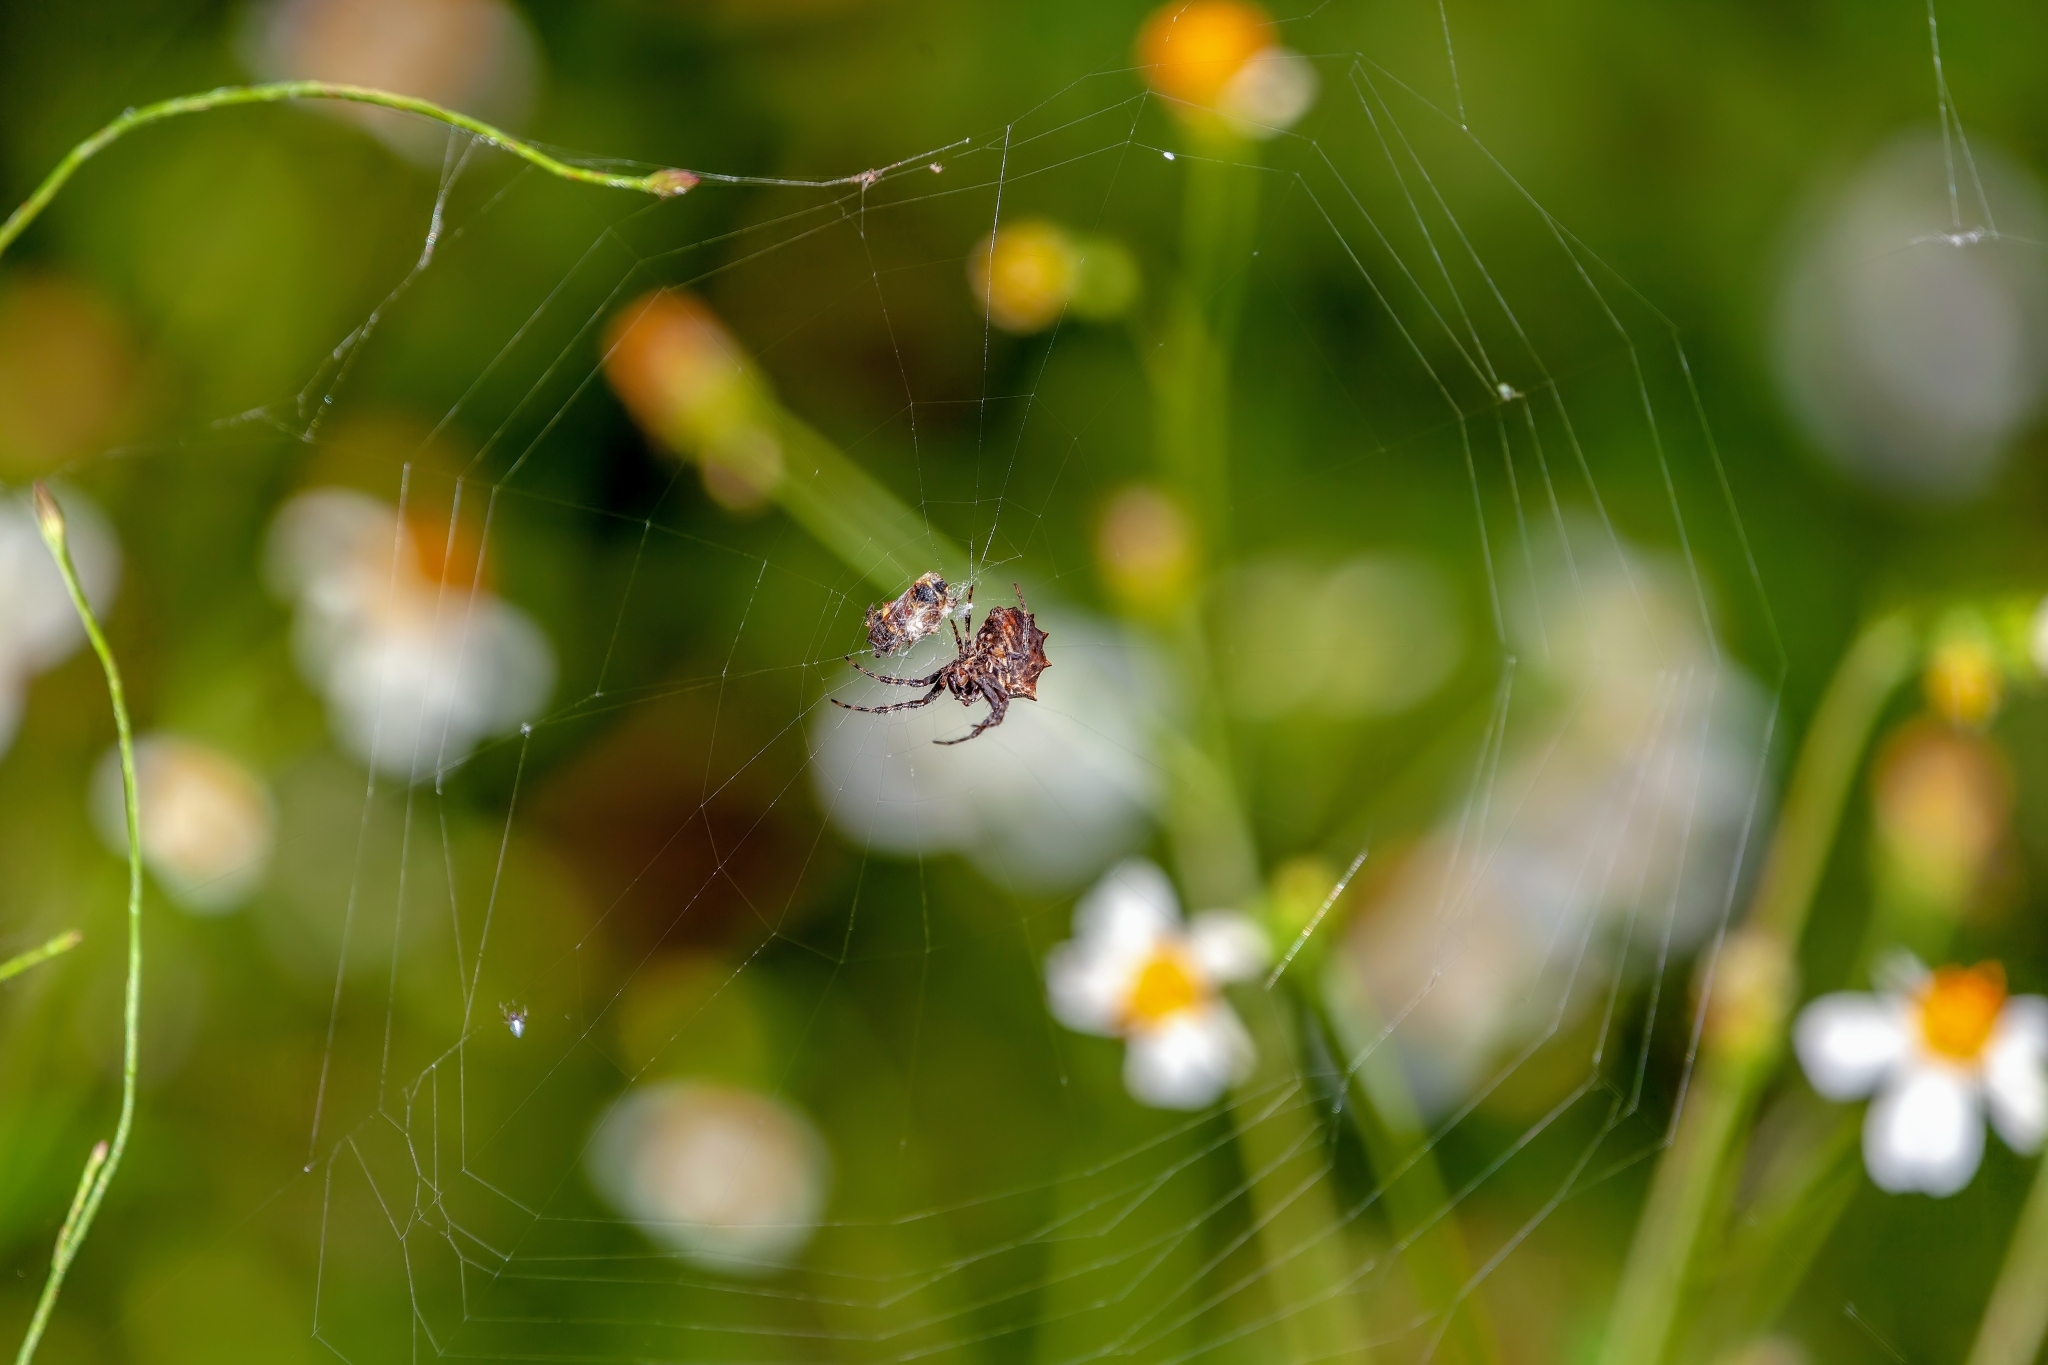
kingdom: Animalia
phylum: Arthropoda
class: Arachnida
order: Araneae
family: Araneidae
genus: Acanthepeira
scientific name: Acanthepeira venusta
